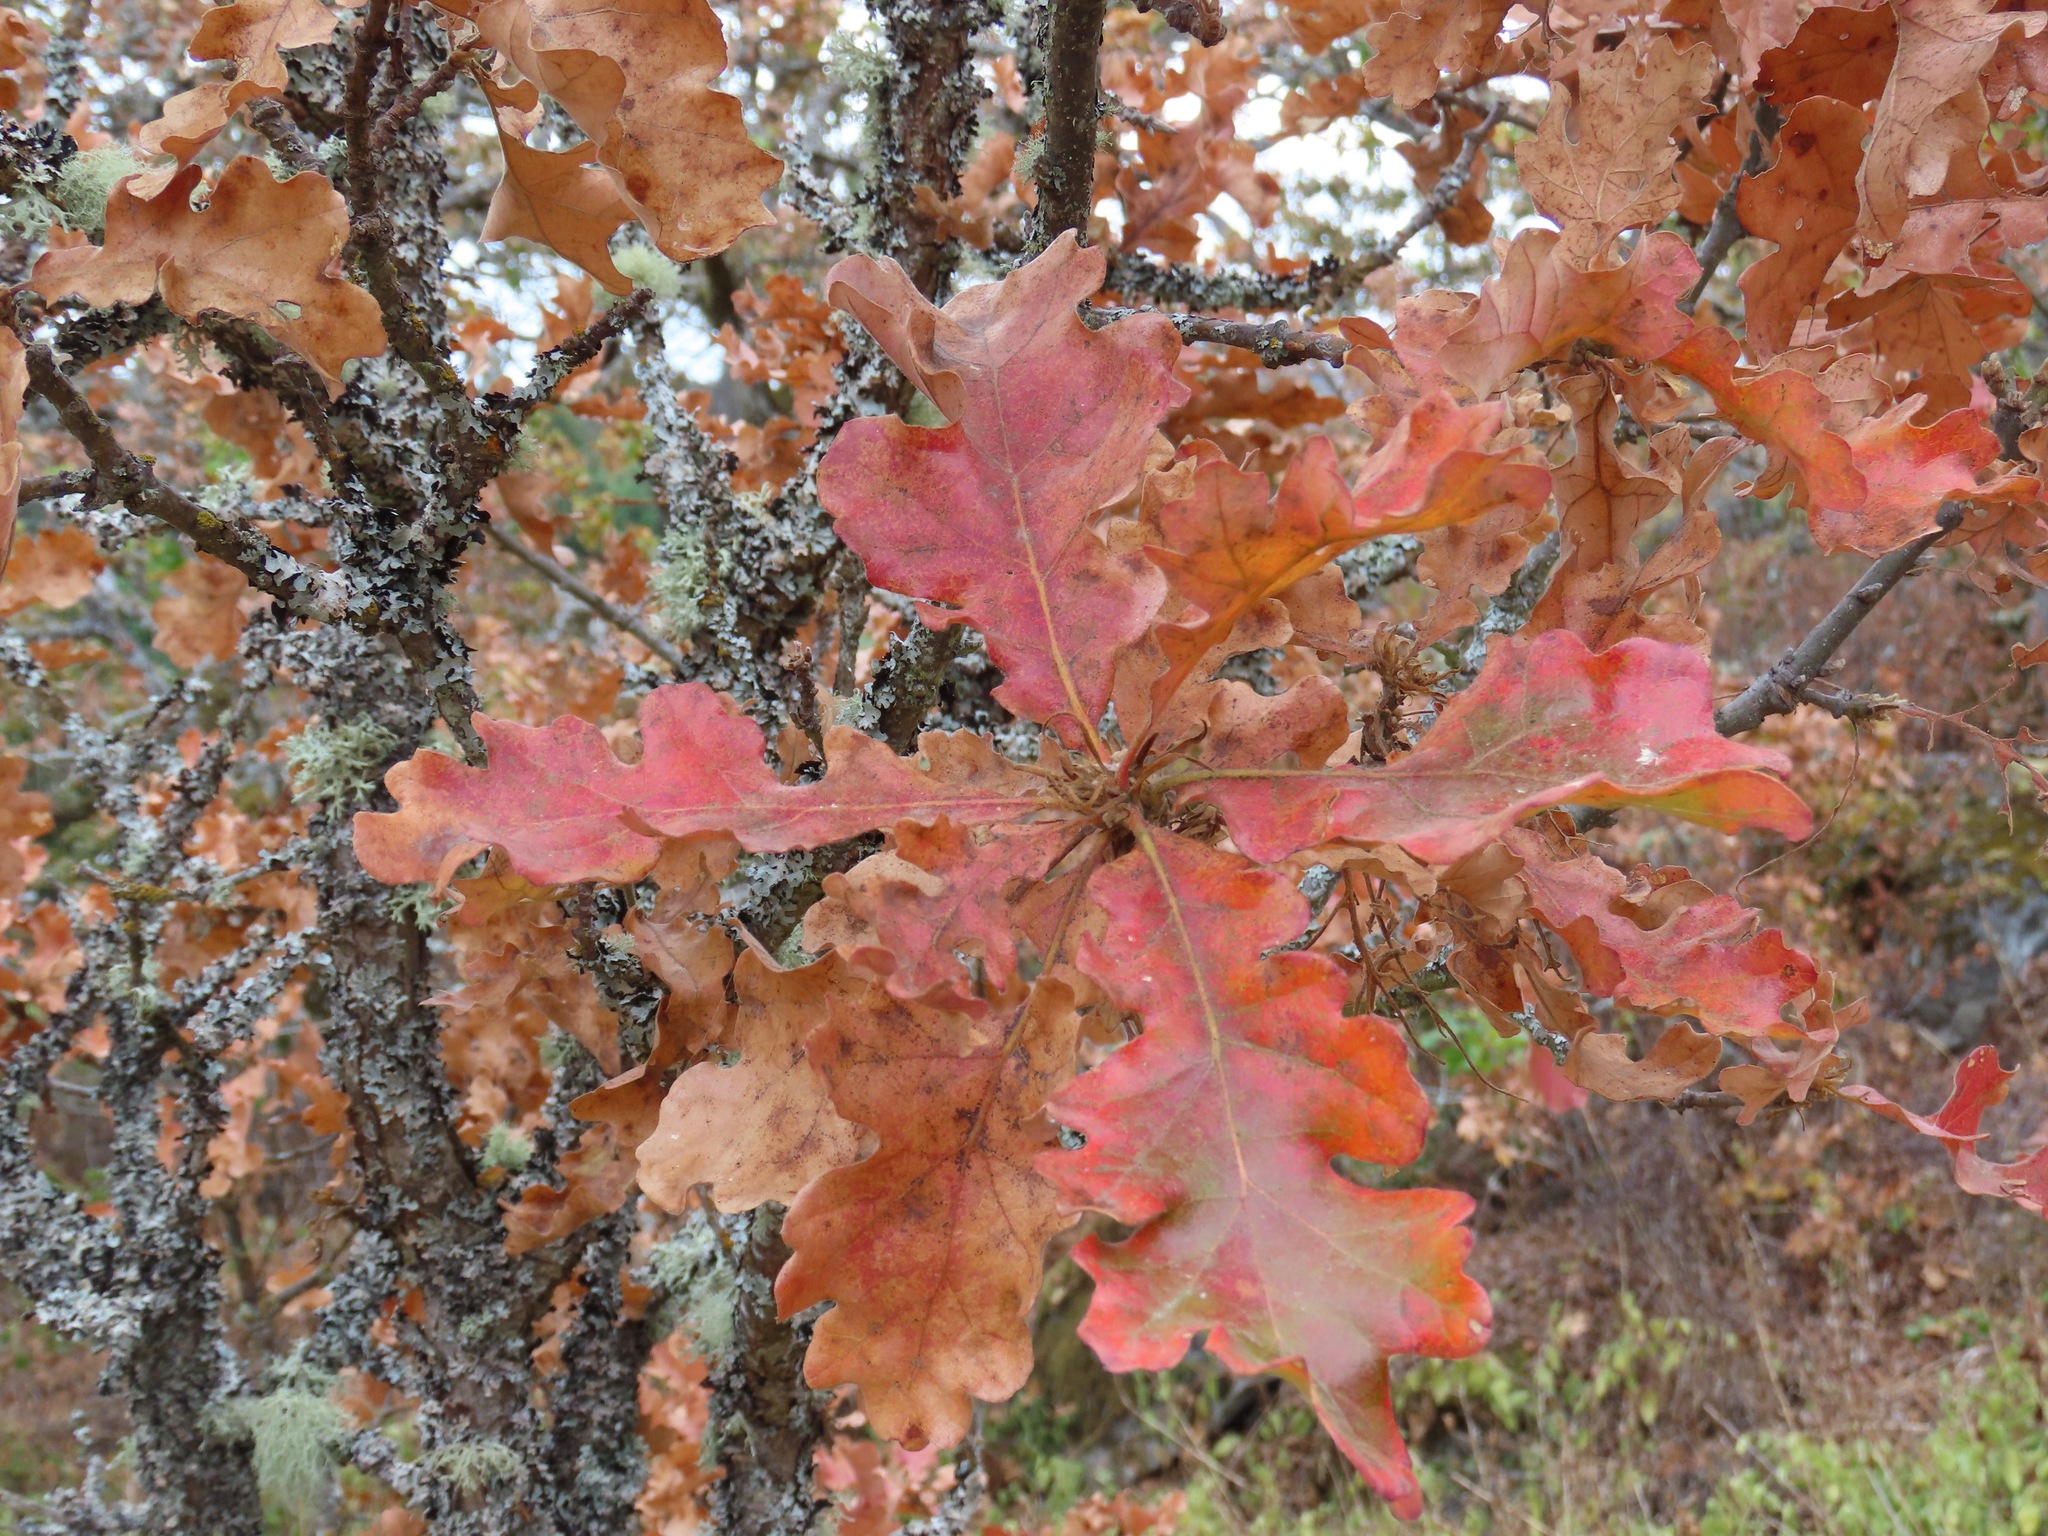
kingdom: Plantae
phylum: Tracheophyta
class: Magnoliopsida
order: Fagales
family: Fagaceae
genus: Quercus
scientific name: Quercus garryana
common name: Garry oak
